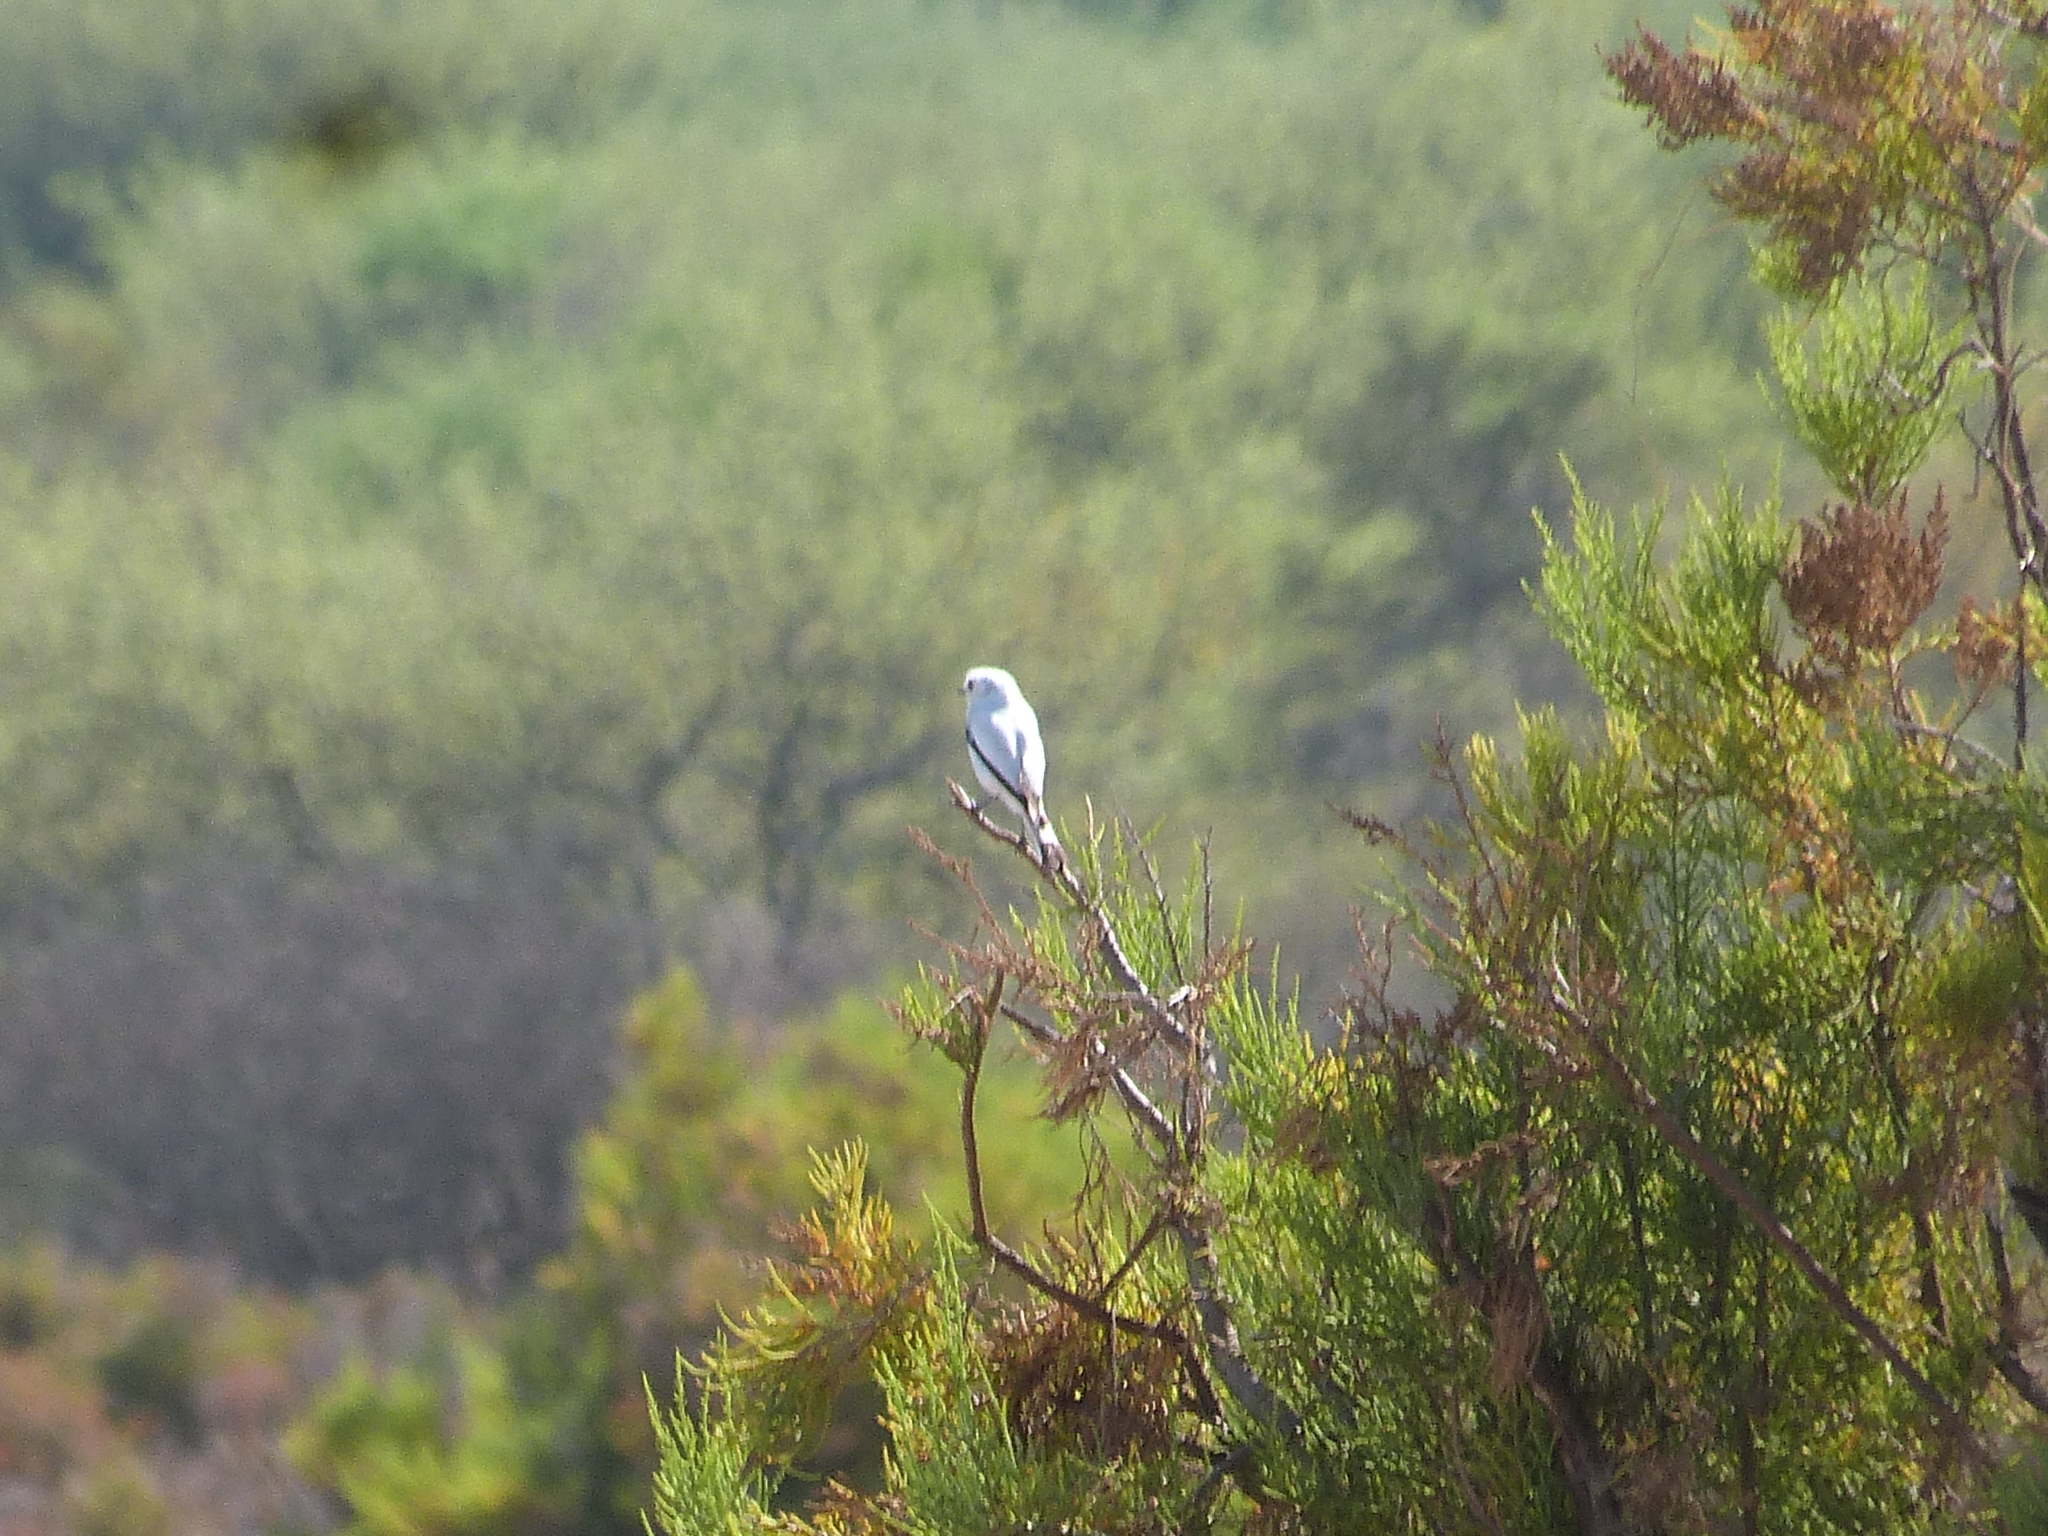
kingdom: Animalia
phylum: Chordata
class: Aves
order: Passeriformes
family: Tyrannidae
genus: Xolmis
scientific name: Xolmis irupero
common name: White monjita
